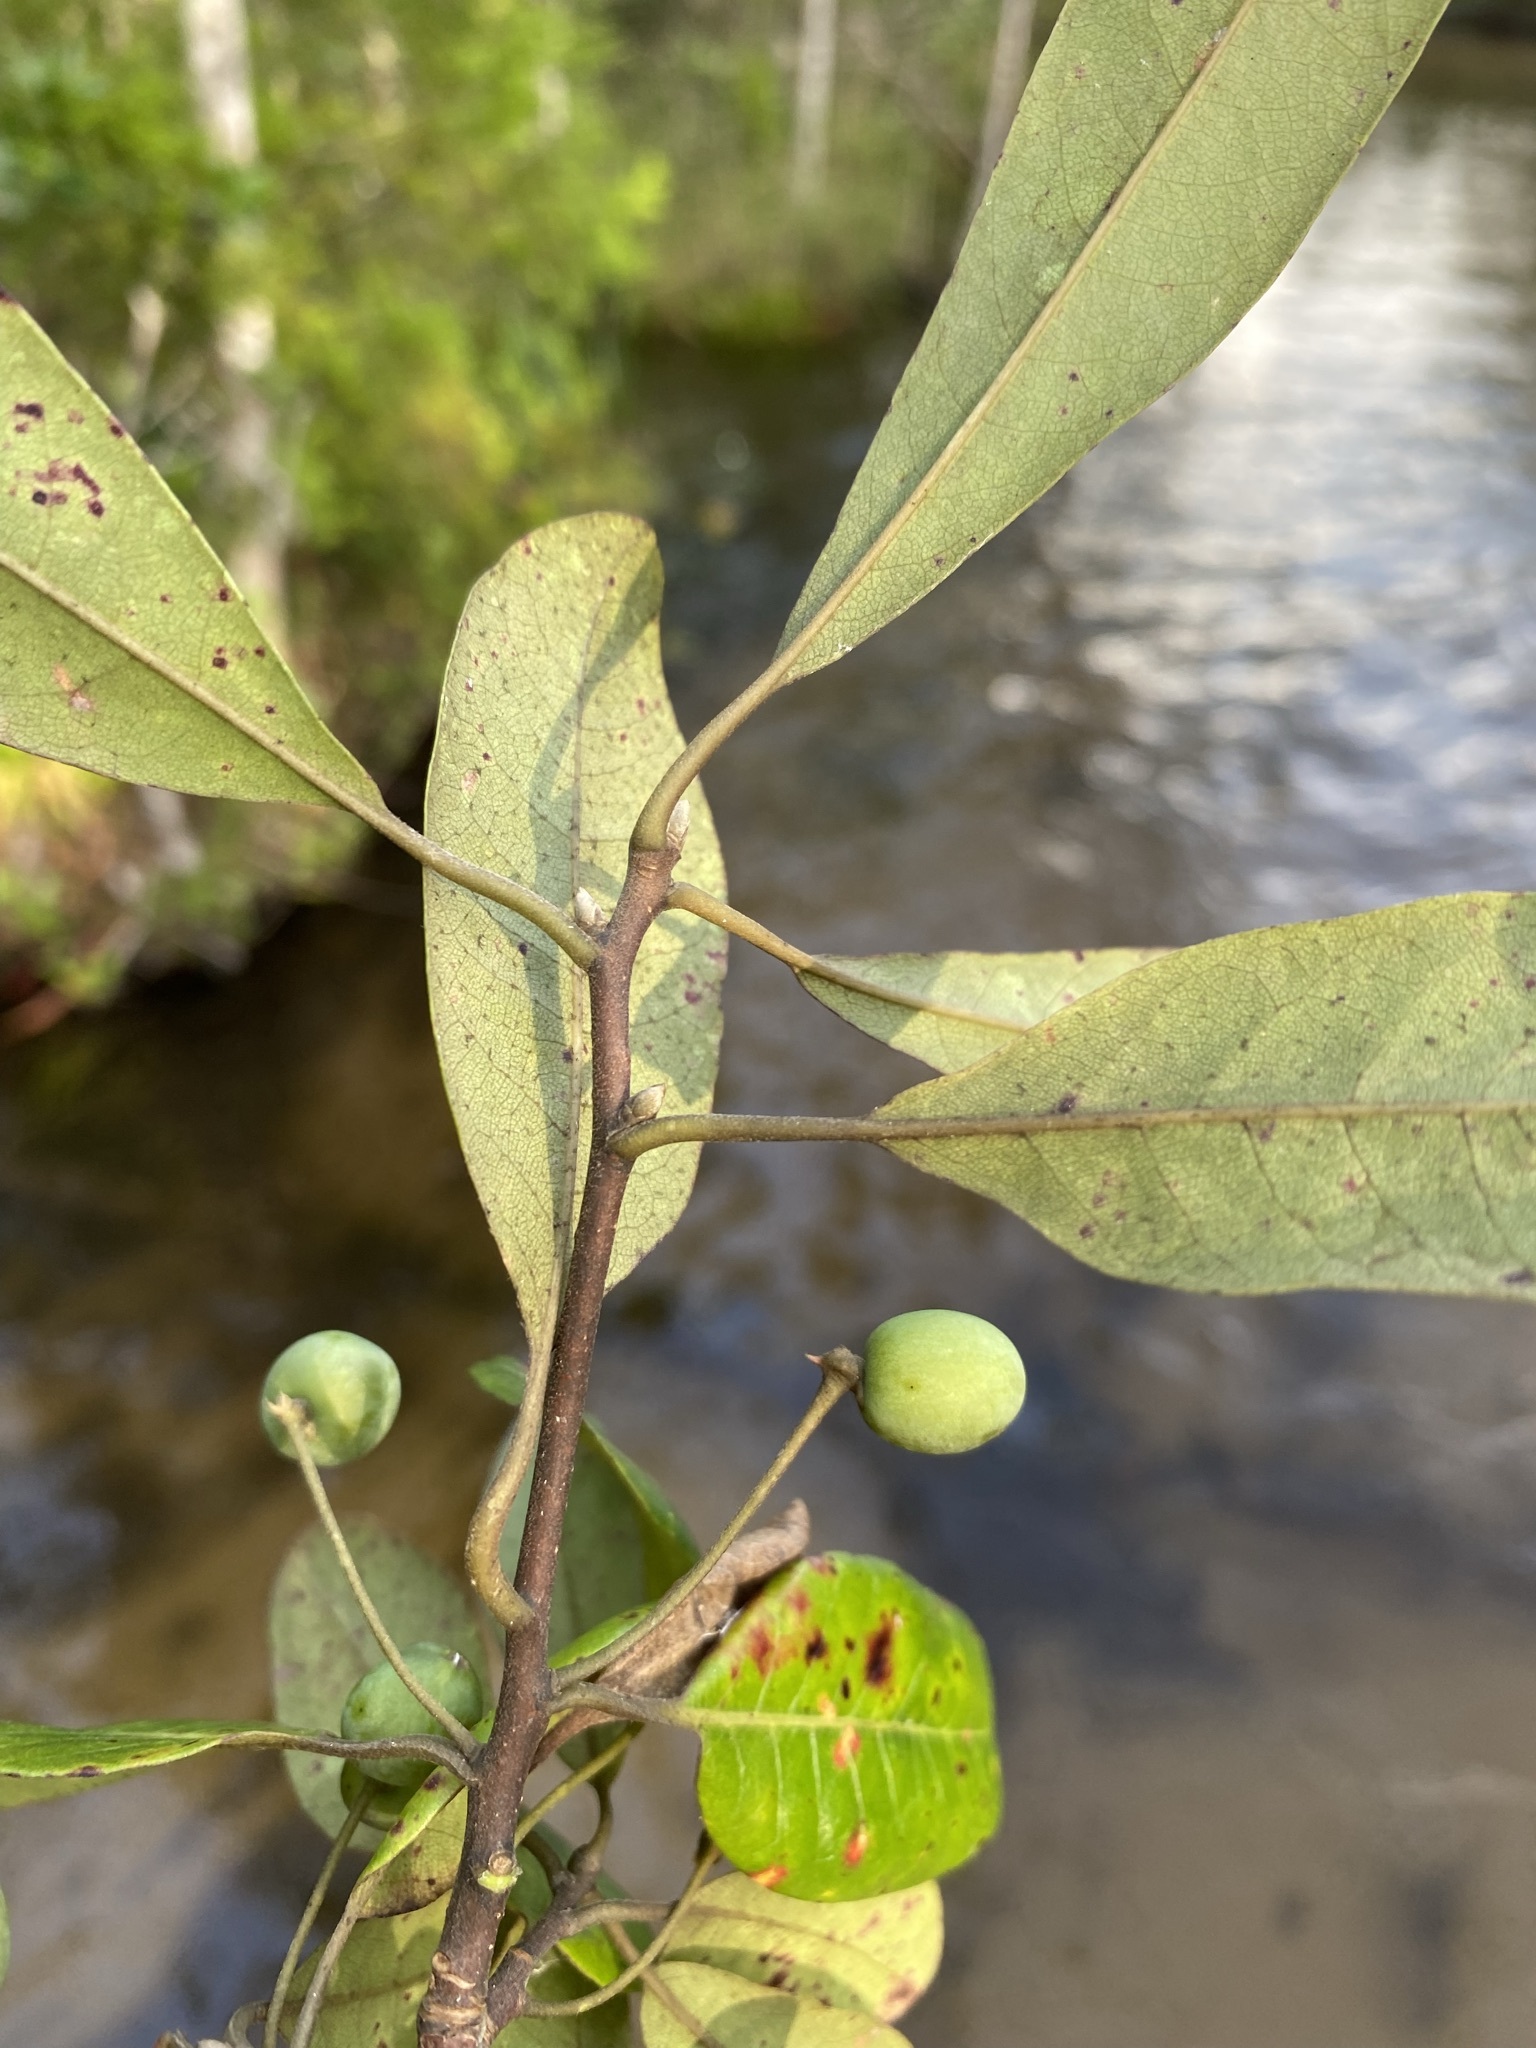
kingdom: Plantae
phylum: Tracheophyta
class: Magnoliopsida
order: Cornales
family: Nyssaceae
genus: Nyssa
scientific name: Nyssa biflora
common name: Swamp blackgum
